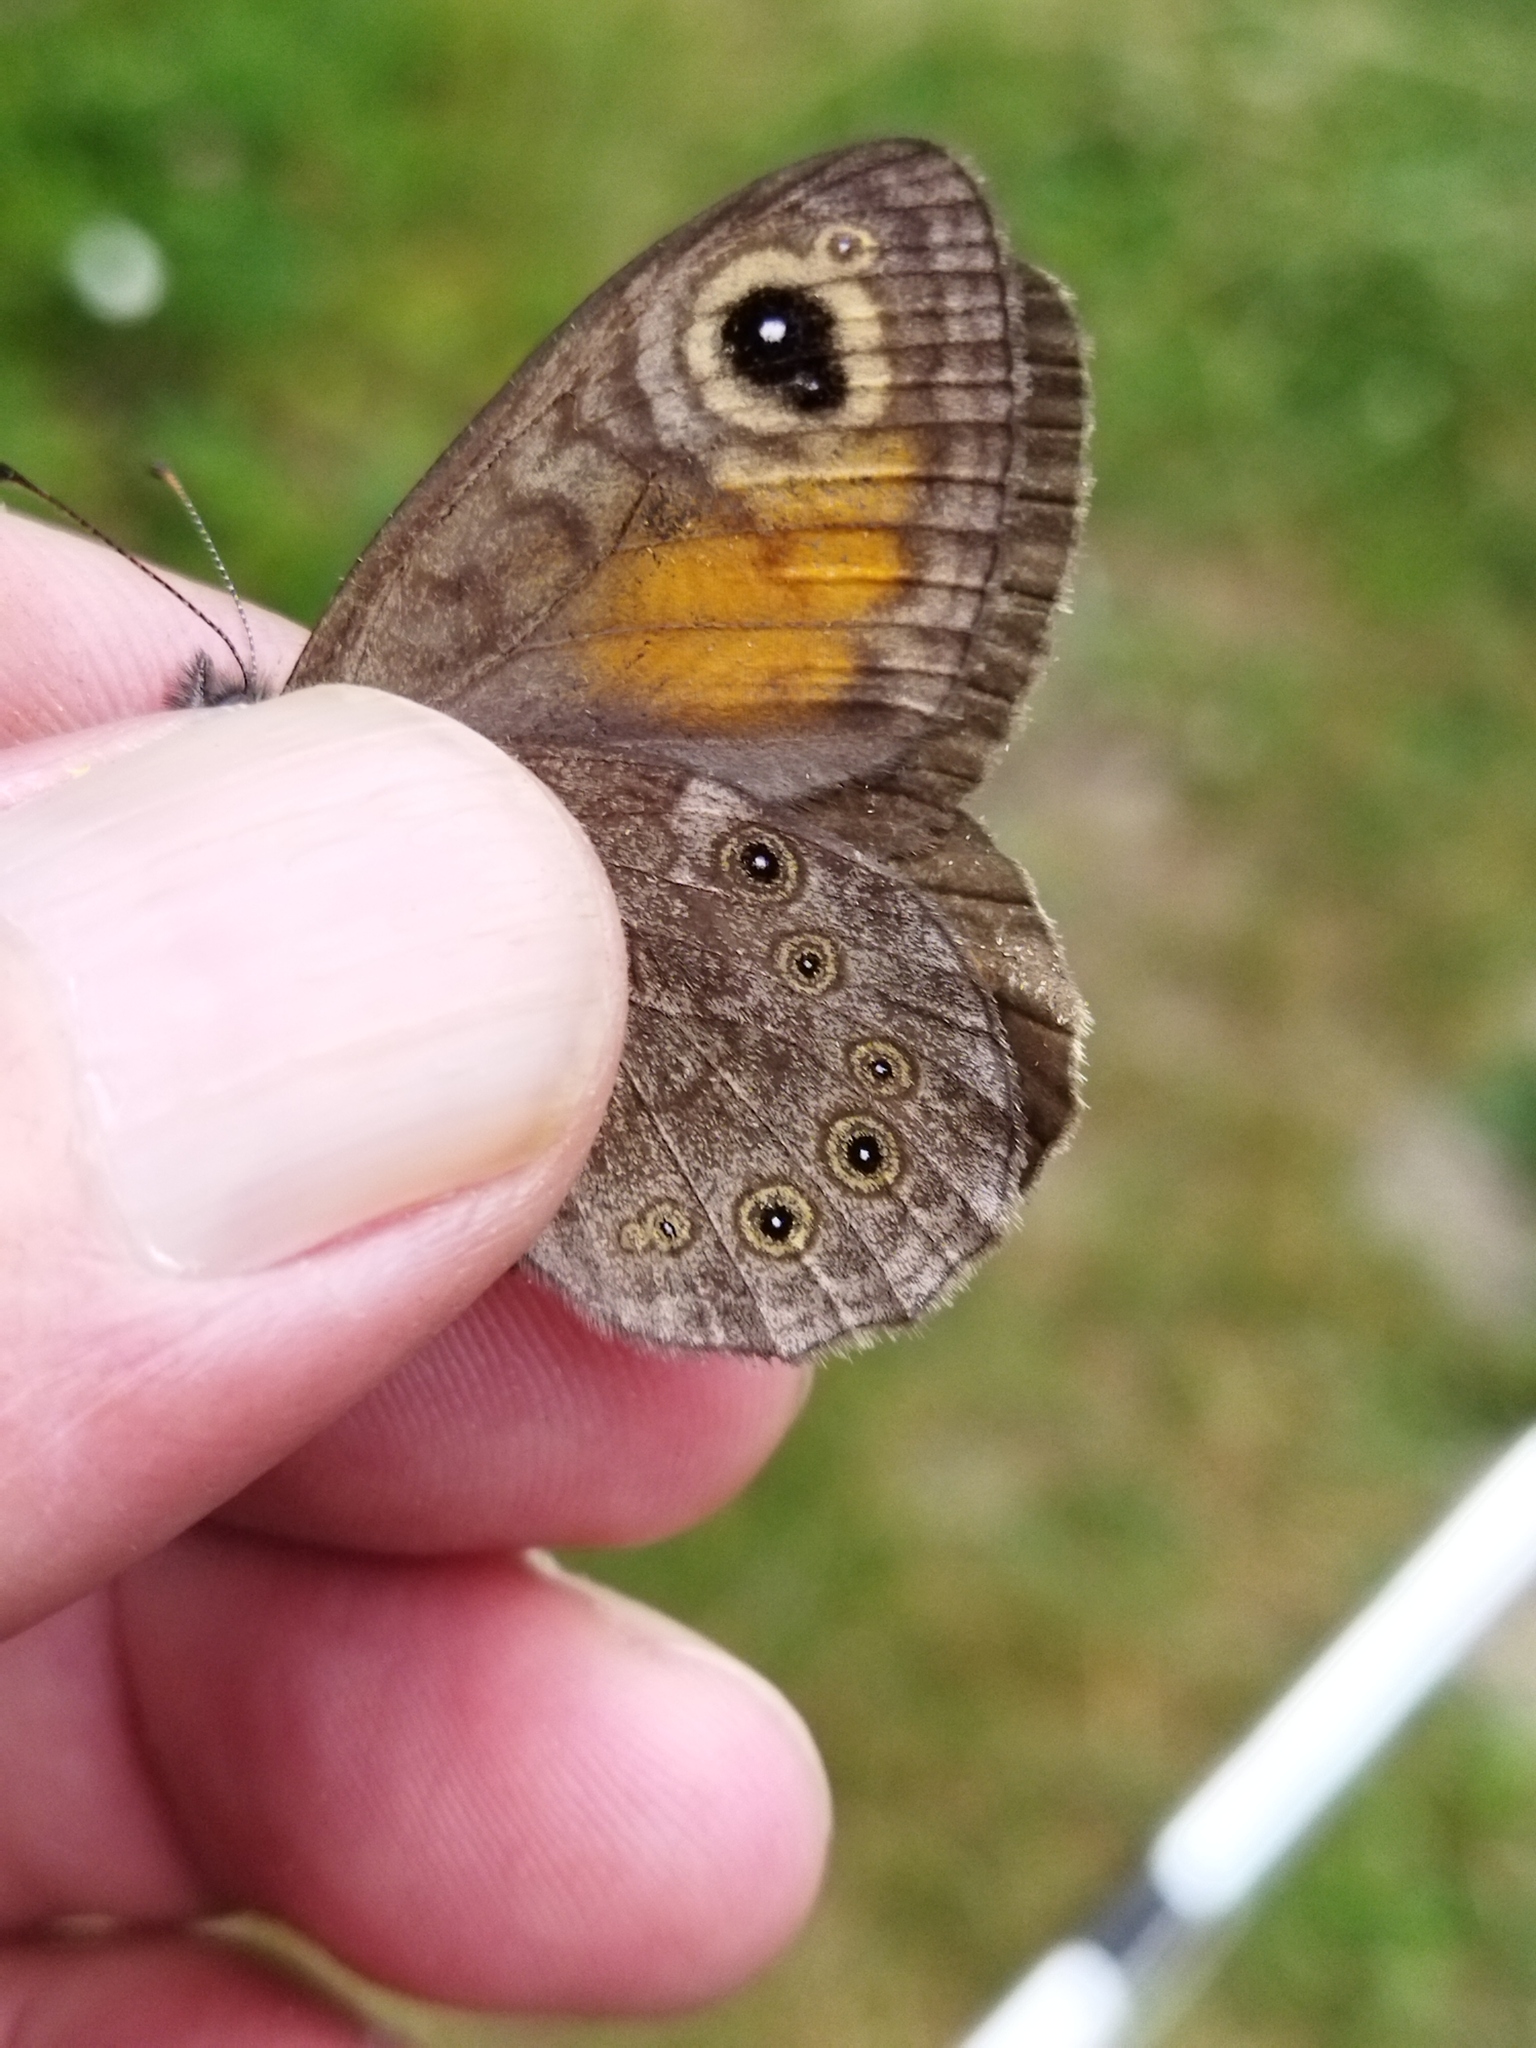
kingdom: Animalia
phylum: Arthropoda
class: Insecta
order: Lepidoptera
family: Nymphalidae
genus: Pararge
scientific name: Pararge Lasiommata maera
